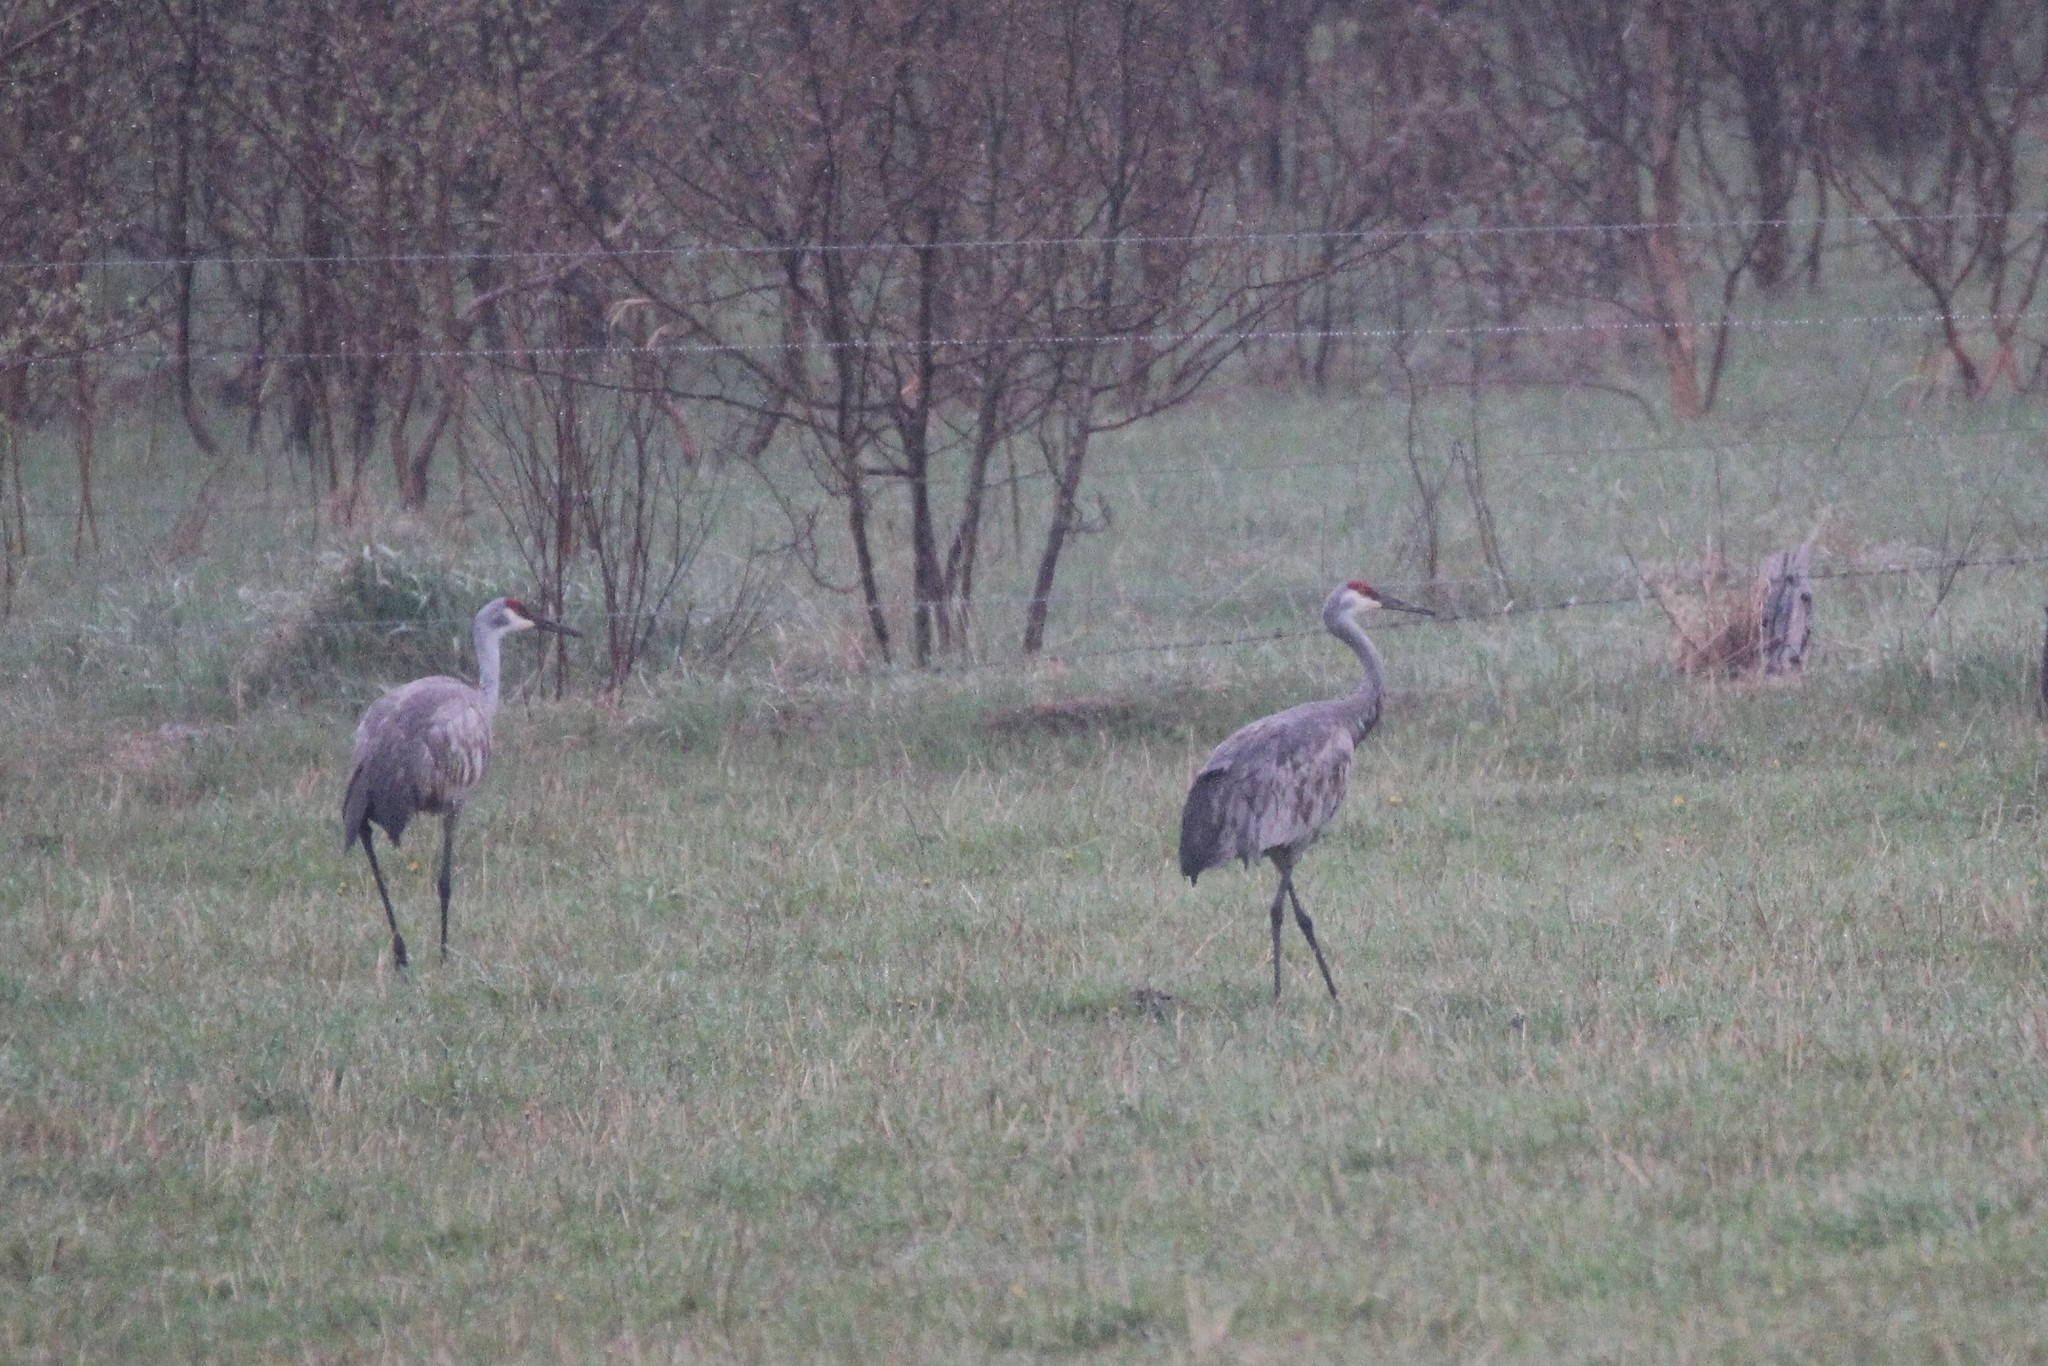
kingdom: Animalia
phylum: Chordata
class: Aves
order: Gruiformes
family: Gruidae
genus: Grus
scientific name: Grus canadensis
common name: Sandhill crane
